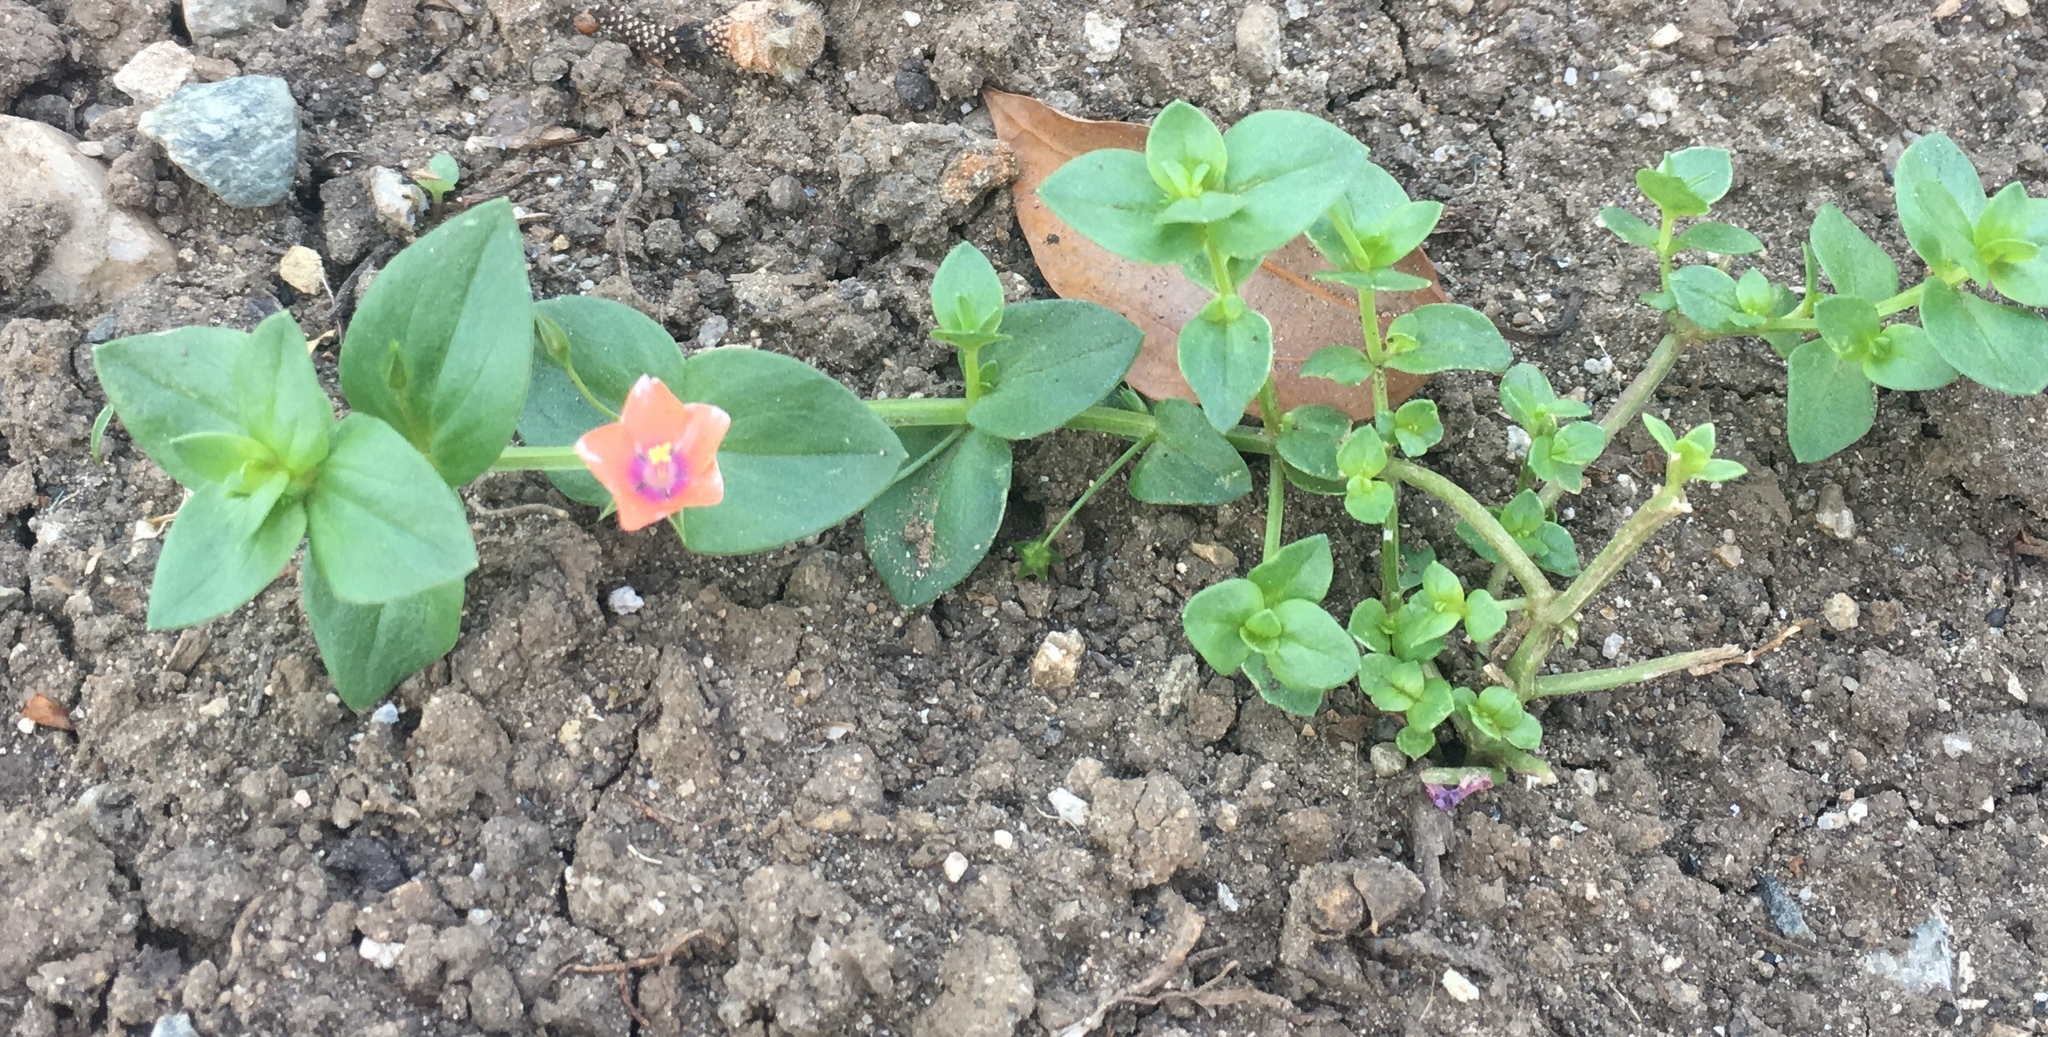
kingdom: Plantae
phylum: Tracheophyta
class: Magnoliopsida
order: Ericales
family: Primulaceae
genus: Lysimachia
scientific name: Lysimachia arvensis
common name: Scarlet pimpernel
